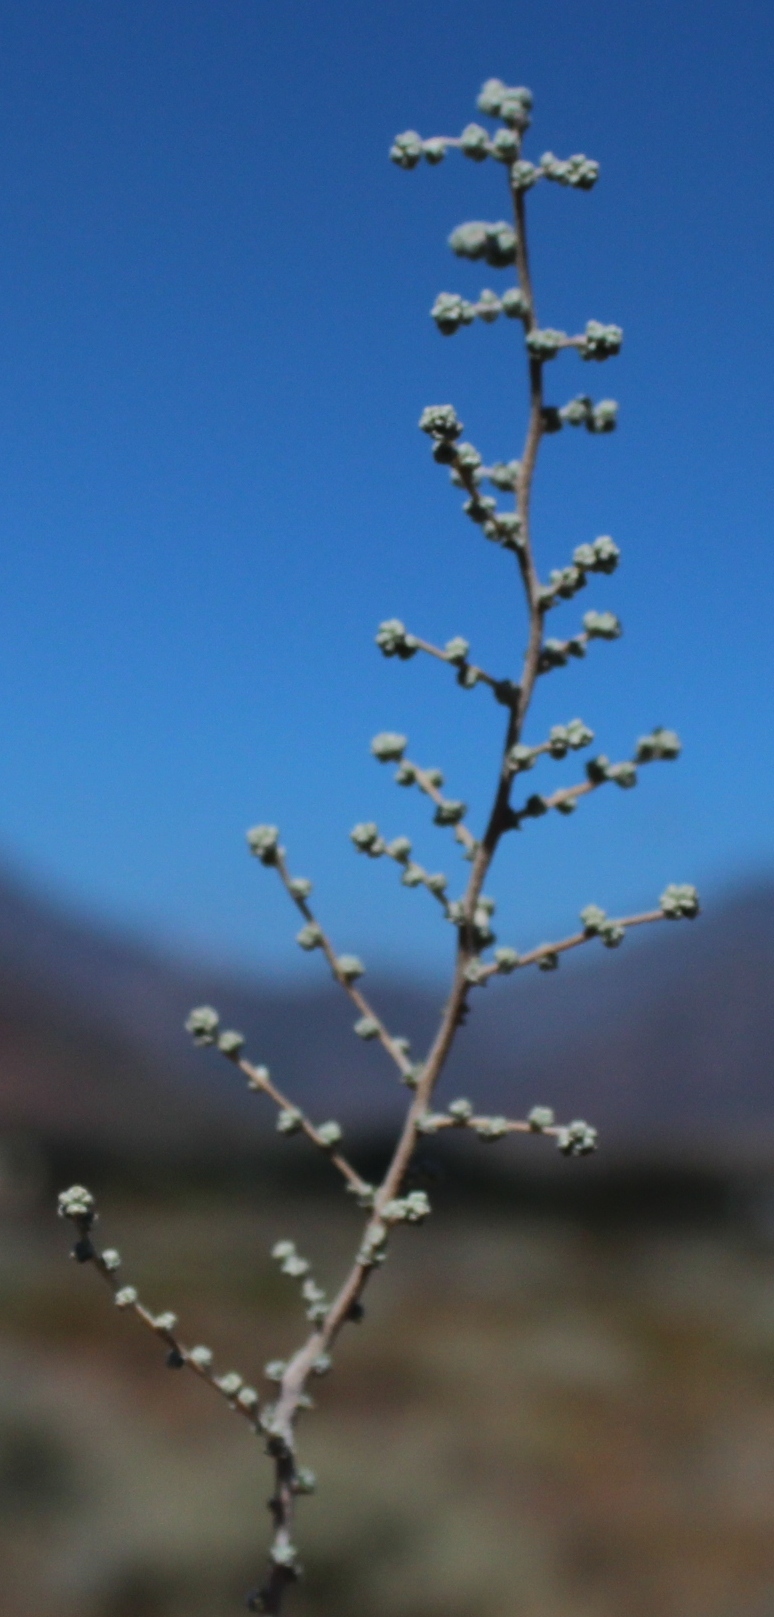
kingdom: Plantae
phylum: Tracheophyta
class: Magnoliopsida
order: Asterales
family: Asteraceae
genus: Seriphium
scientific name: Seriphium plumosum
